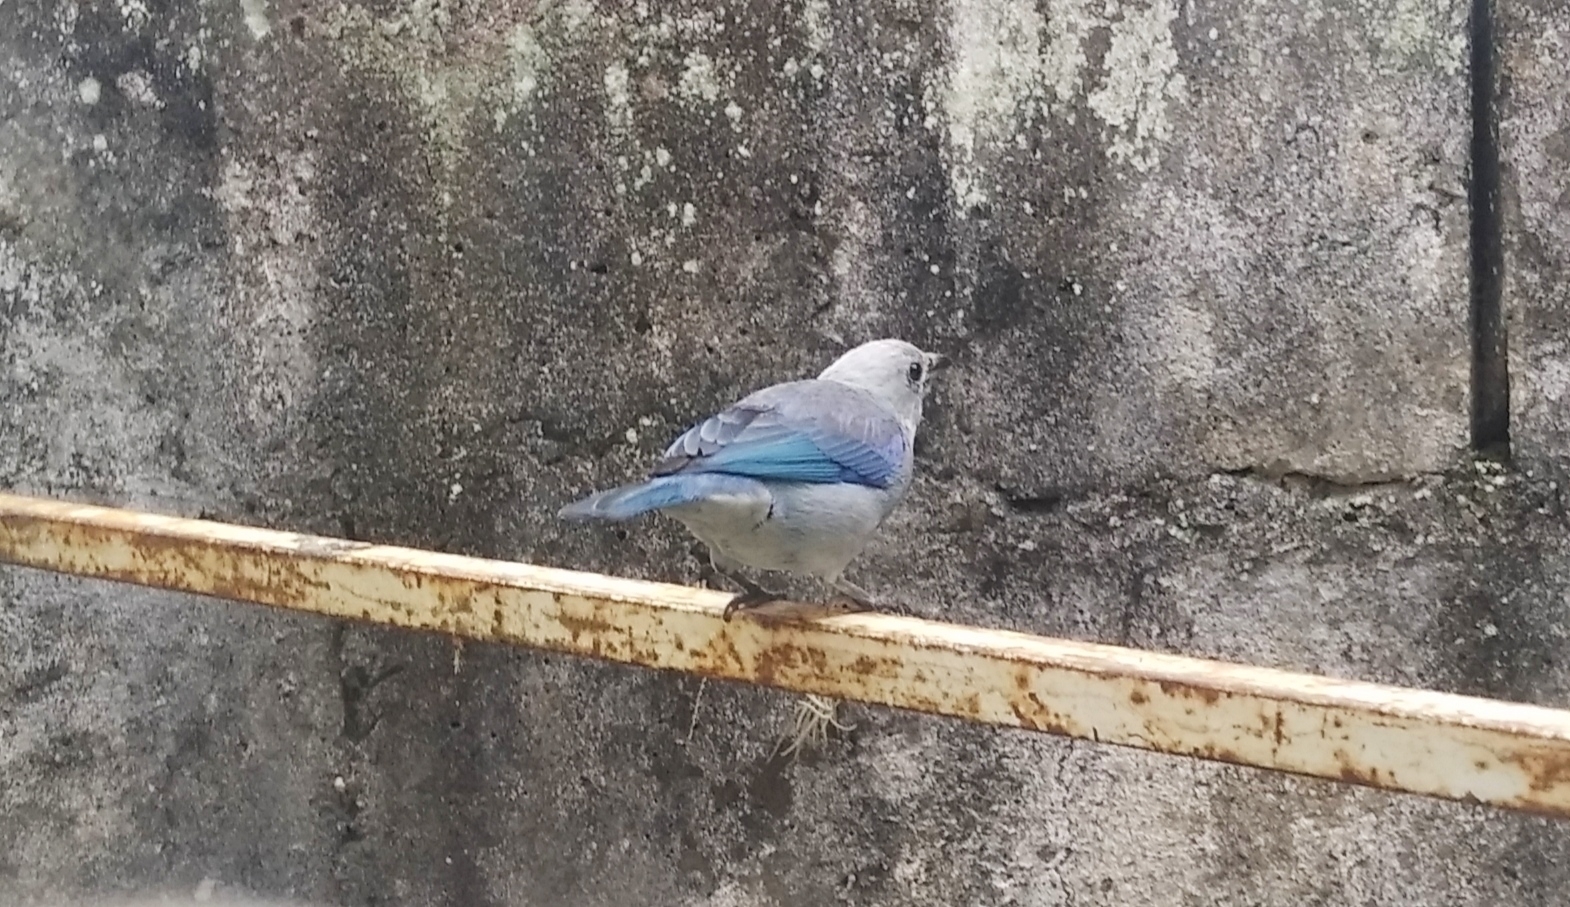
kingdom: Animalia
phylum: Chordata
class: Aves
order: Passeriformes
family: Thraupidae
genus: Thraupis
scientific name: Thraupis episcopus
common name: Blue-grey tanager
